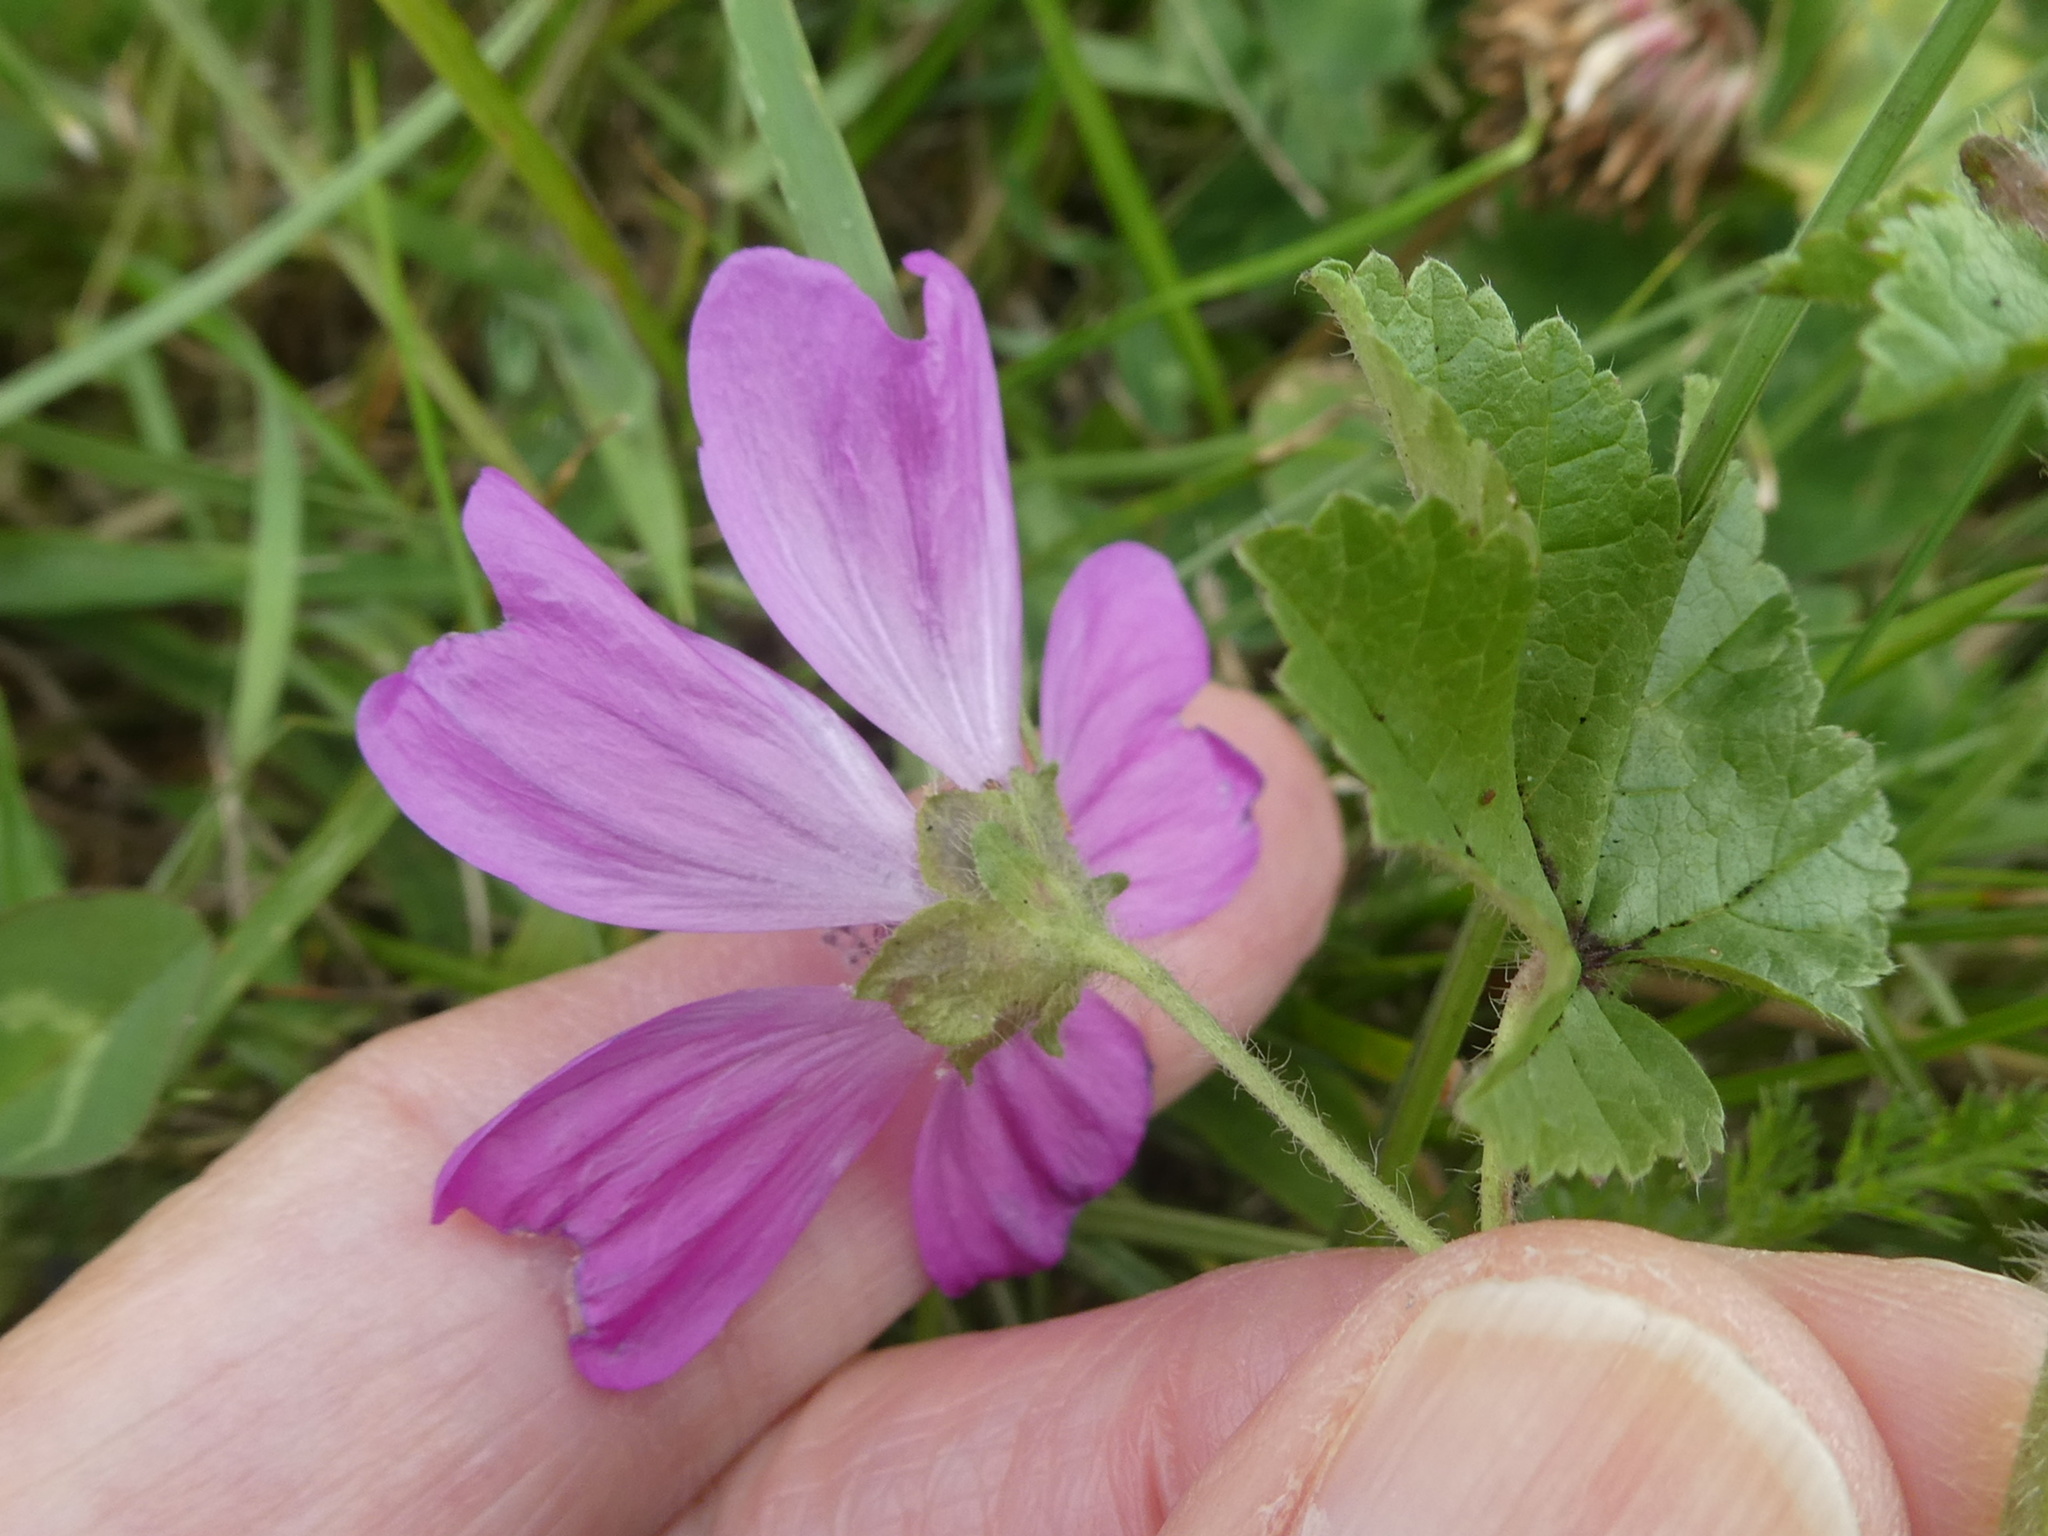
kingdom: Plantae
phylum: Tracheophyta
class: Magnoliopsida
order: Malvales
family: Malvaceae
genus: Malva
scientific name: Malva sylvestris
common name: Common mallow
